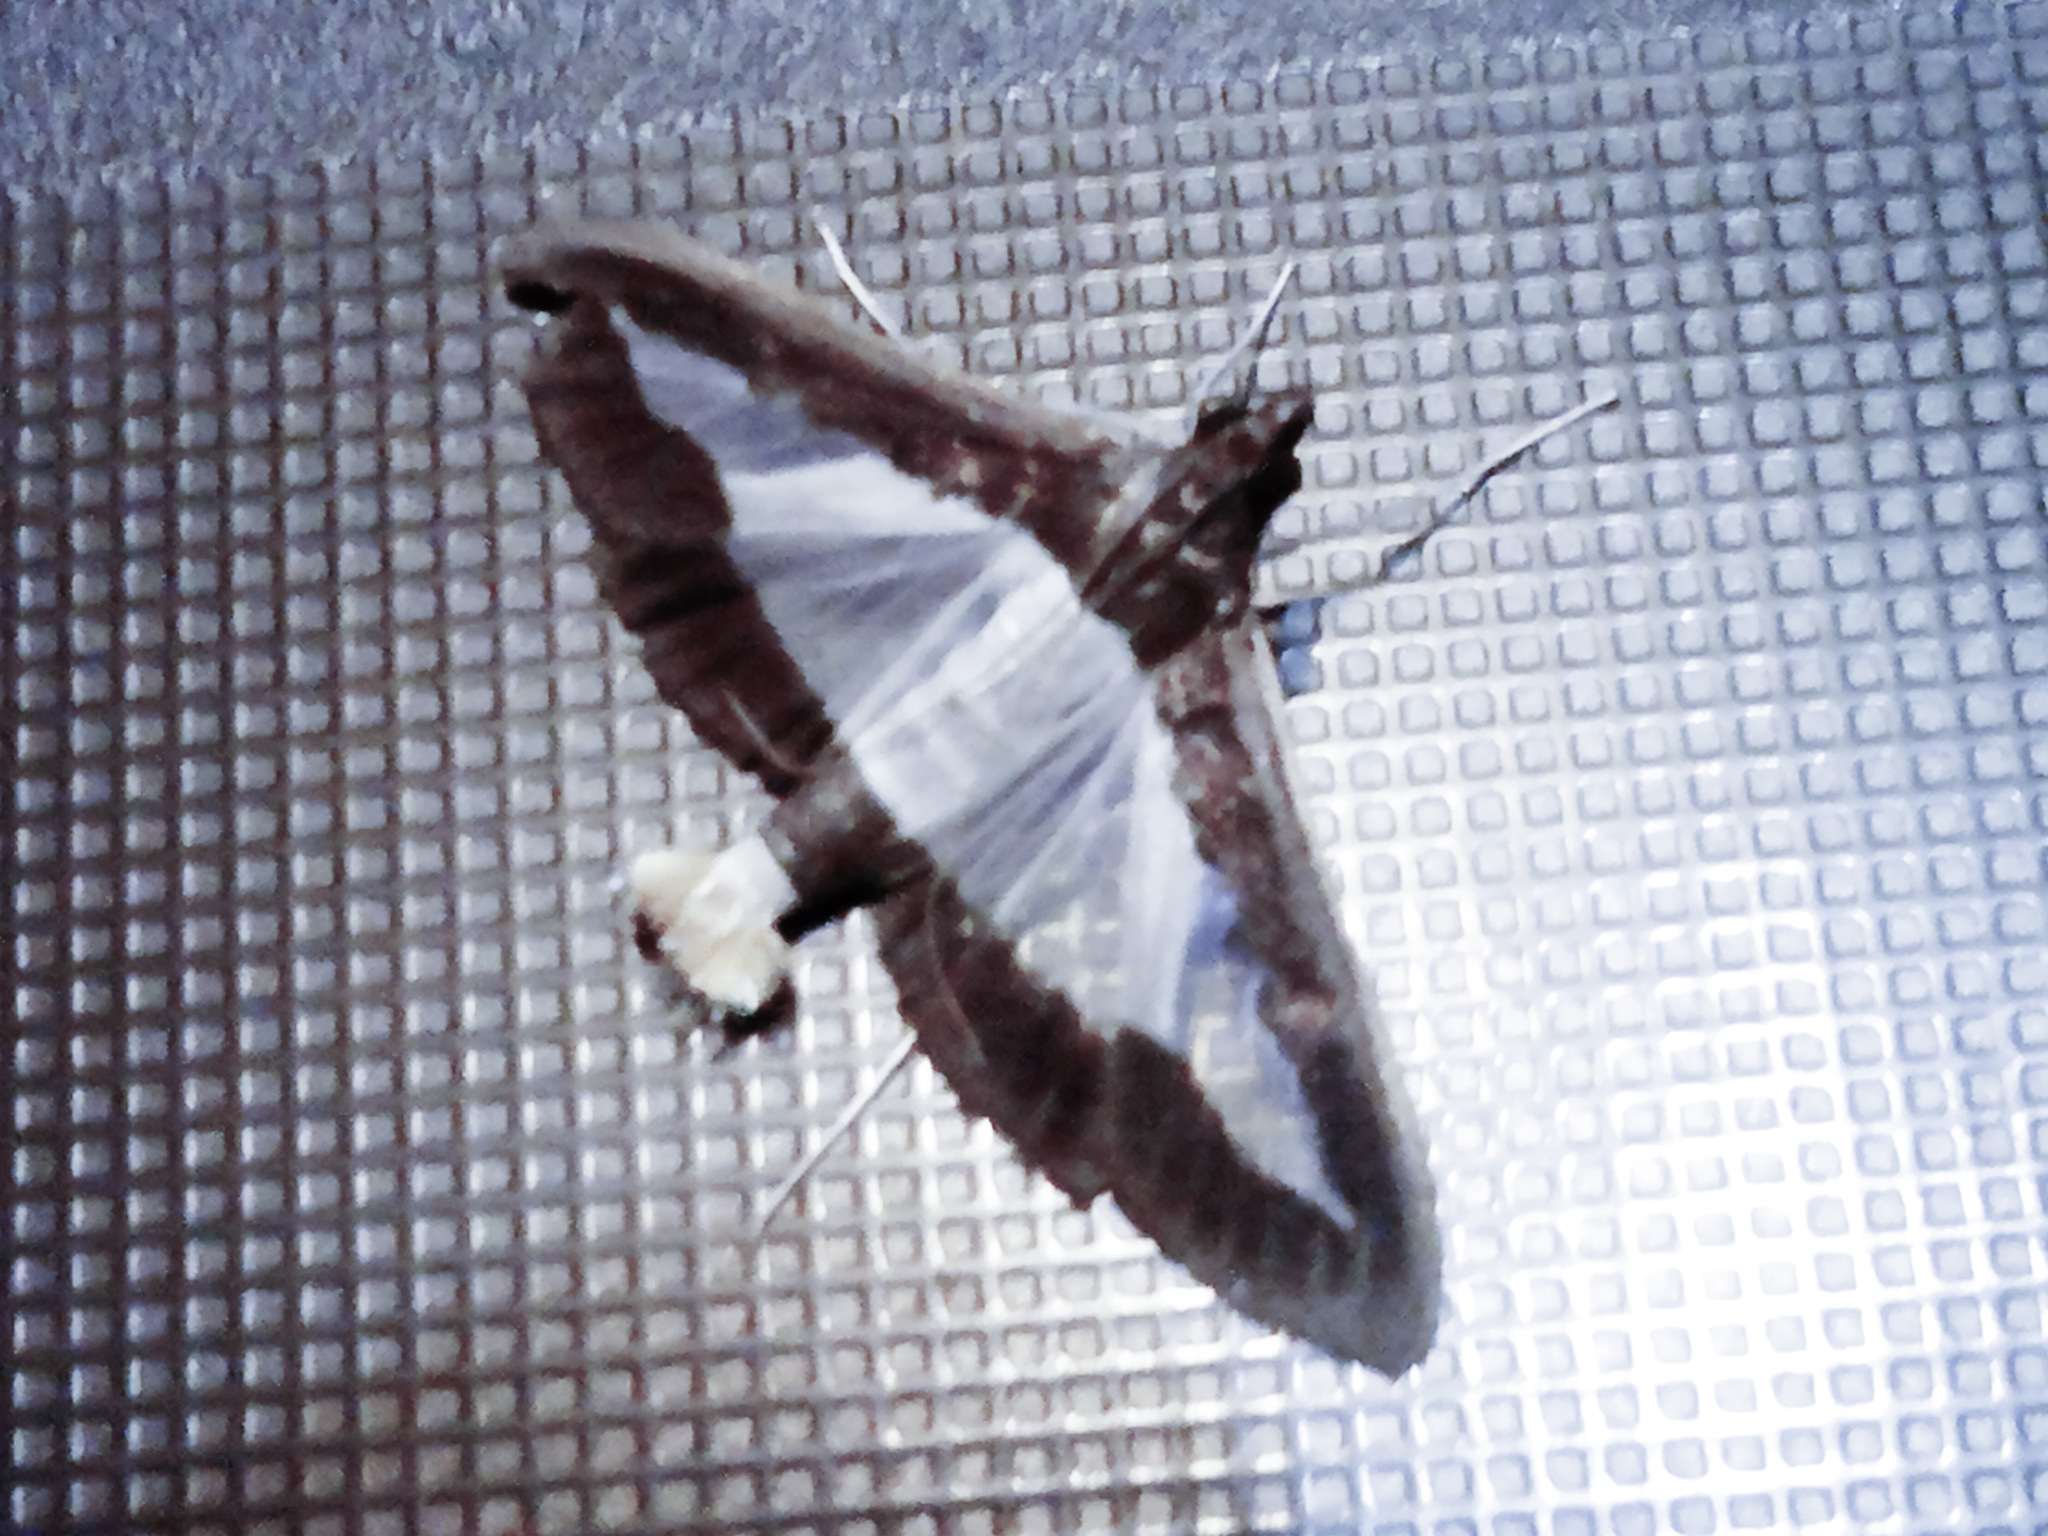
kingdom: Animalia
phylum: Arthropoda
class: Insecta
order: Lepidoptera
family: Crambidae
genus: Diaphania
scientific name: Diaphania indica
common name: Cucumber moth
